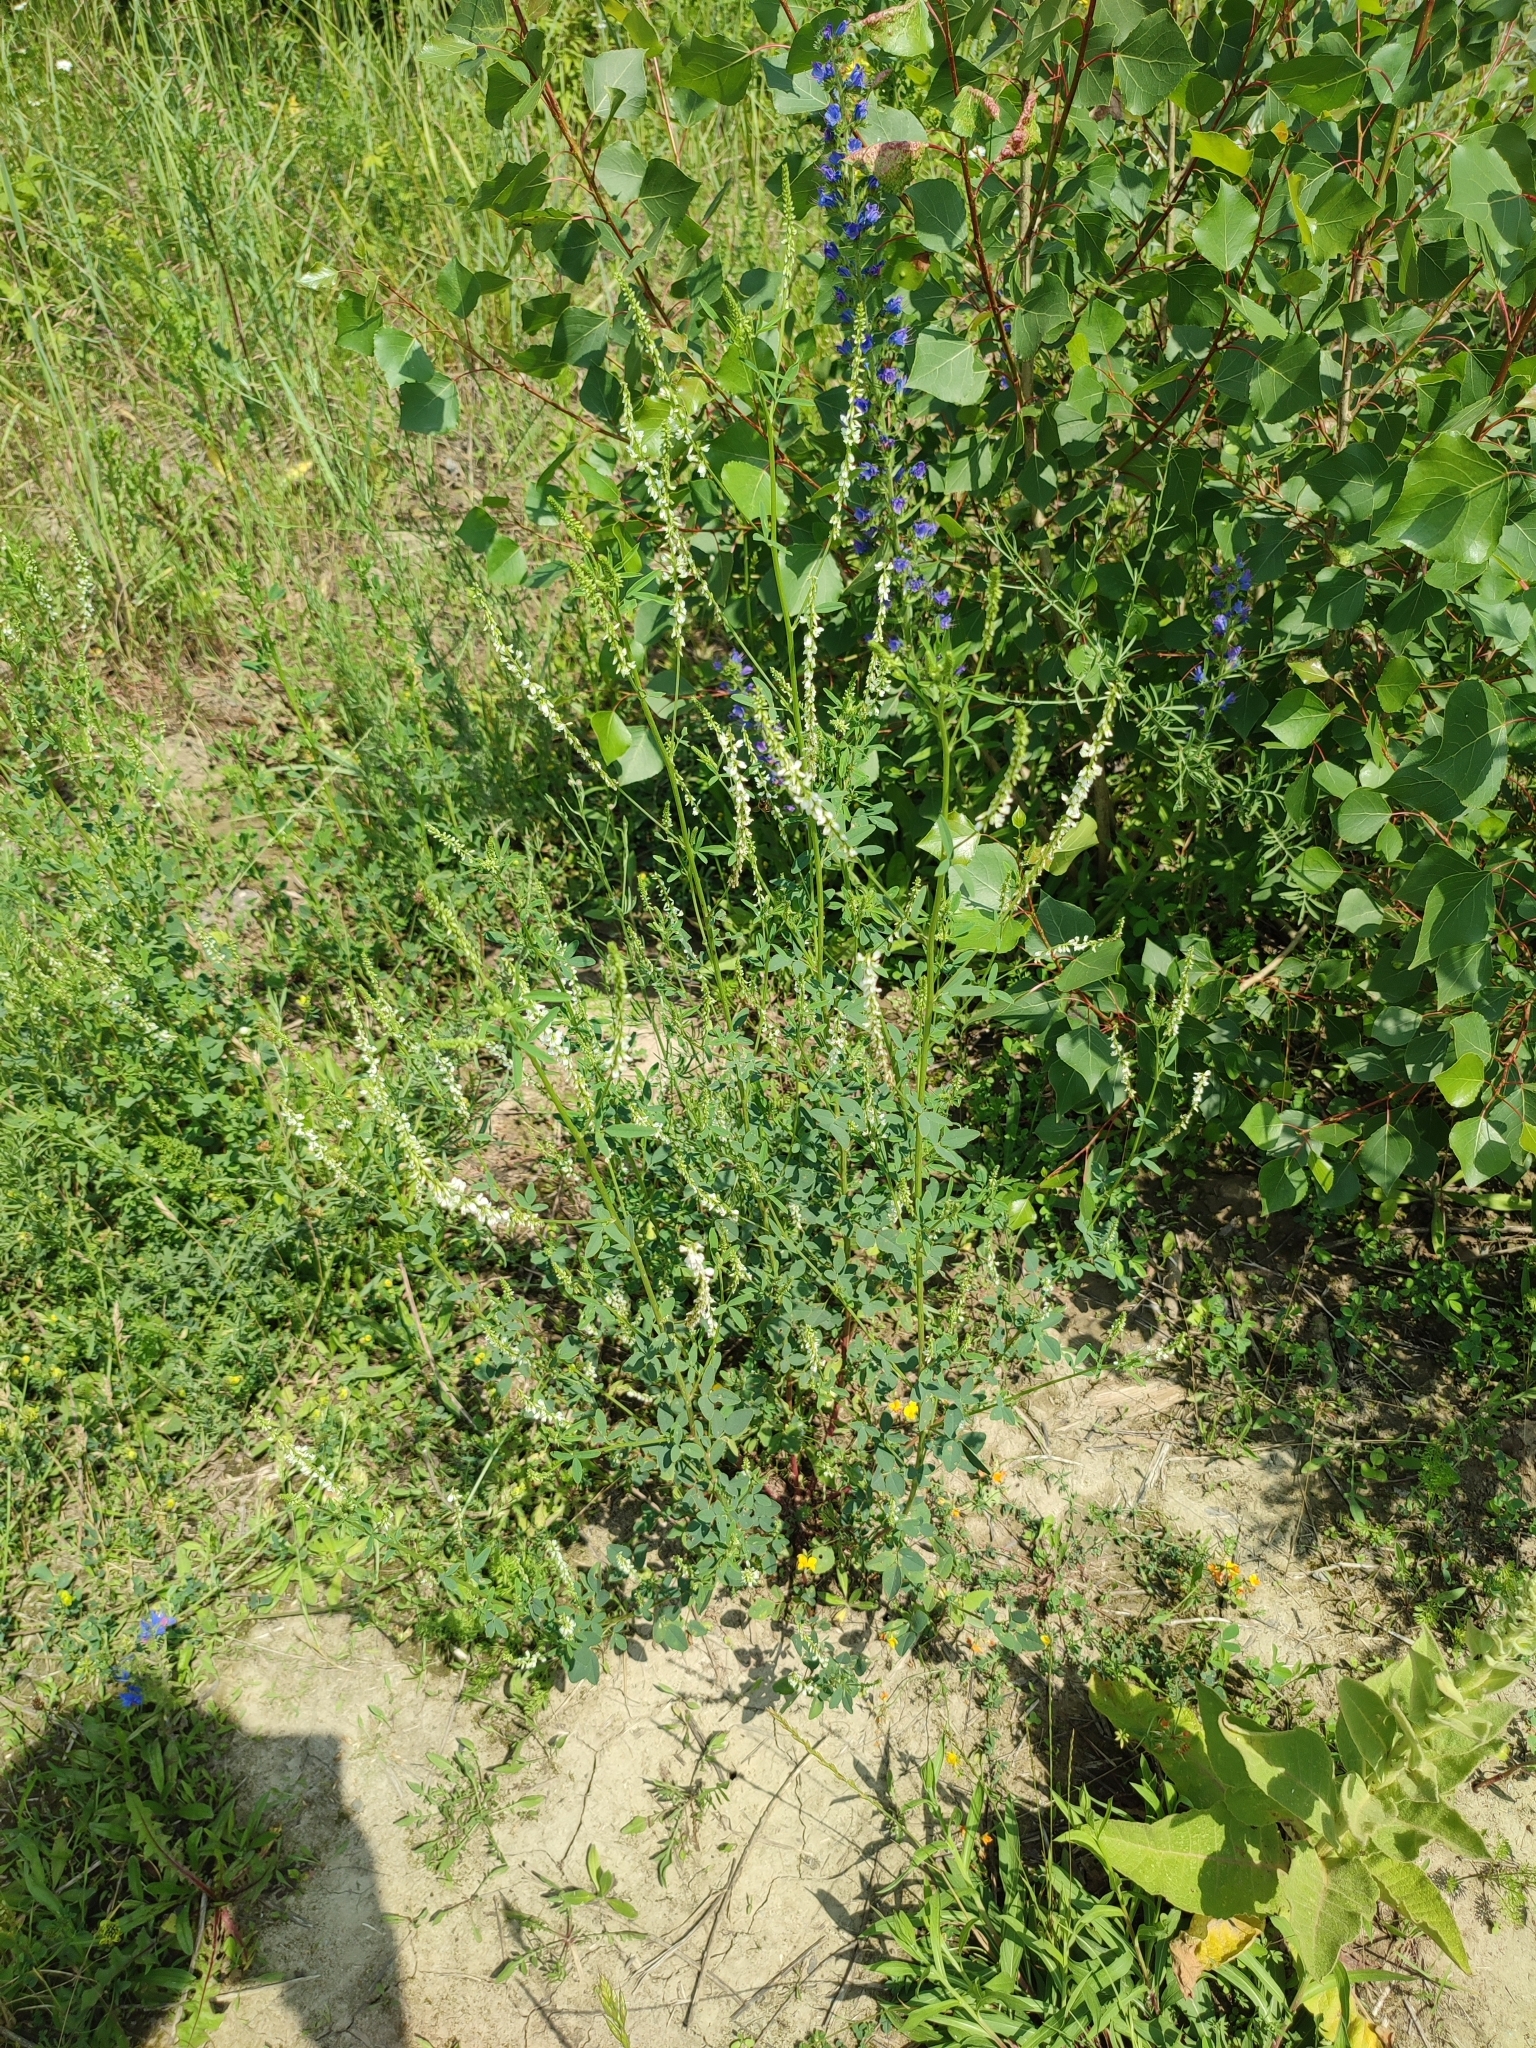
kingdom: Plantae
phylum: Tracheophyta
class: Magnoliopsida
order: Fabales
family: Fabaceae
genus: Melilotus
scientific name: Melilotus albus
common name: White melilot
